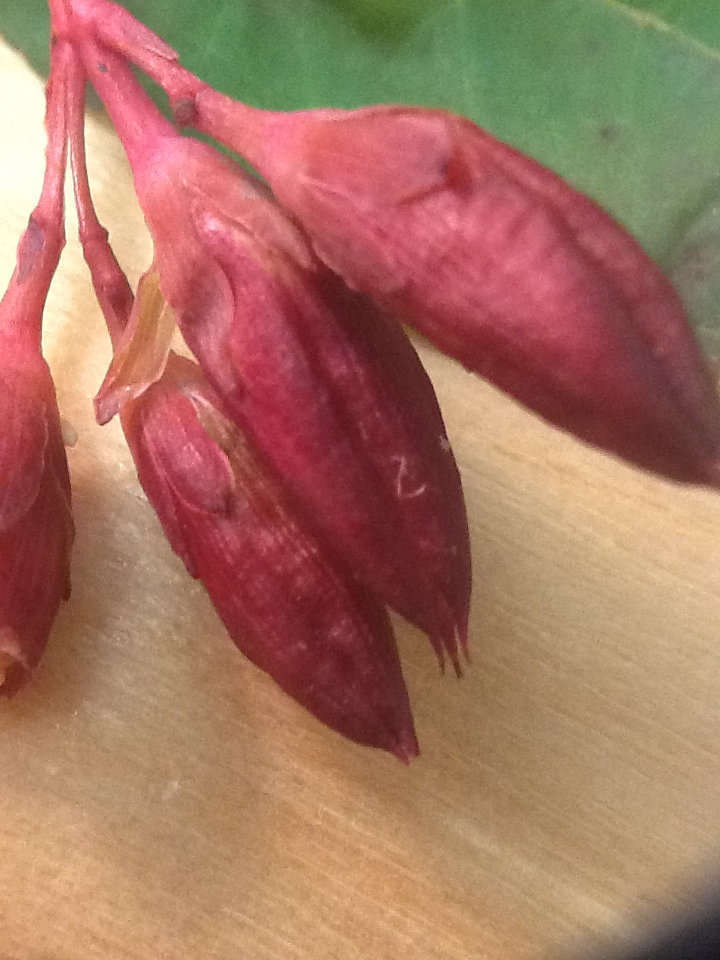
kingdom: Plantae
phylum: Tracheophyta
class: Magnoliopsida
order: Malpighiales
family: Hypericaceae
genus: Triadenum
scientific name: Triadenum virginicum
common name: Marsh st. john's-wort
